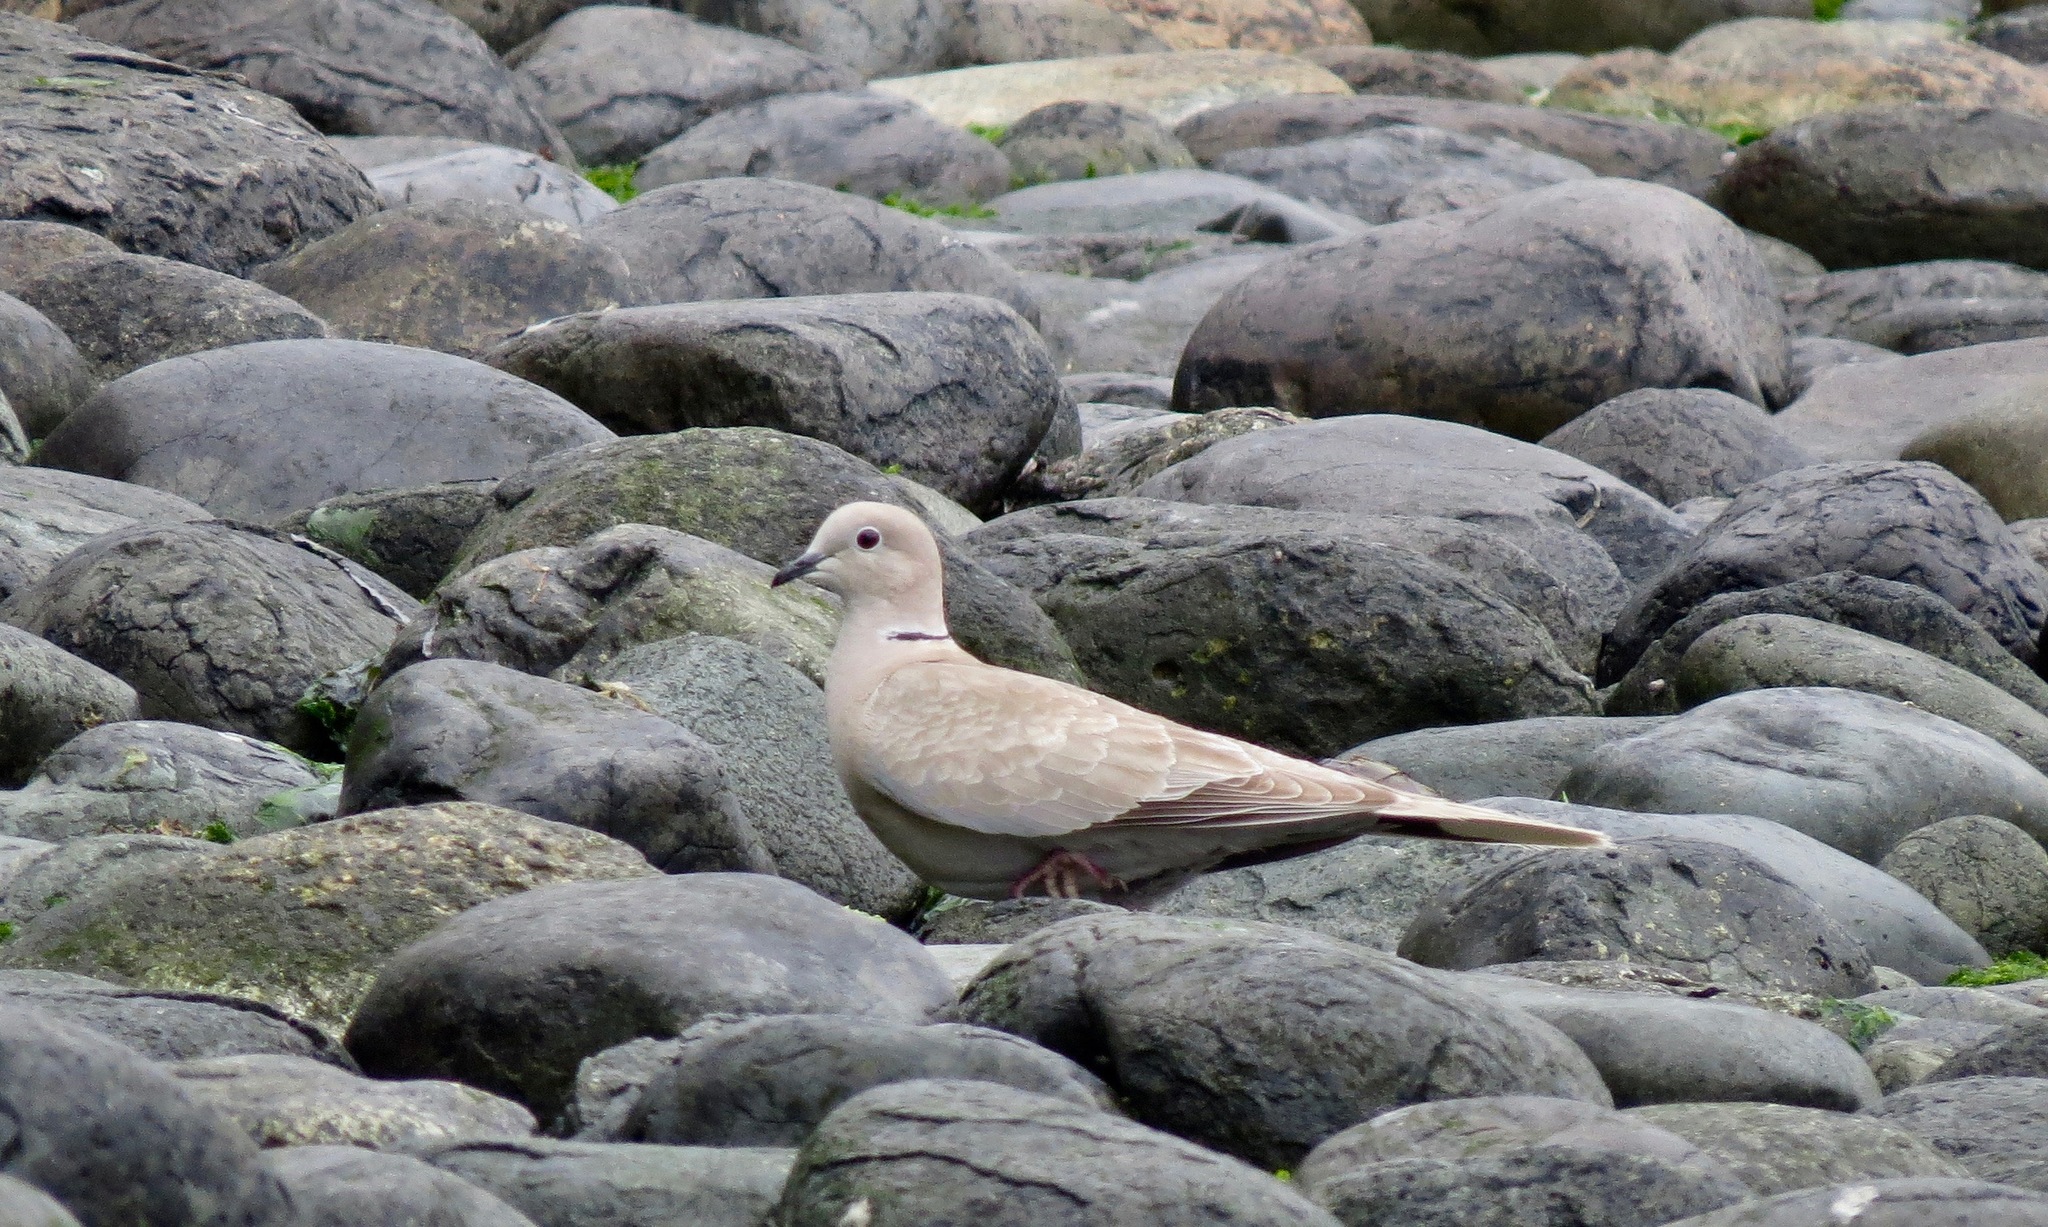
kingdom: Animalia
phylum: Chordata
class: Aves
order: Columbiformes
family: Columbidae
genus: Streptopelia
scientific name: Streptopelia decaocto
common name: Eurasian collared dove
